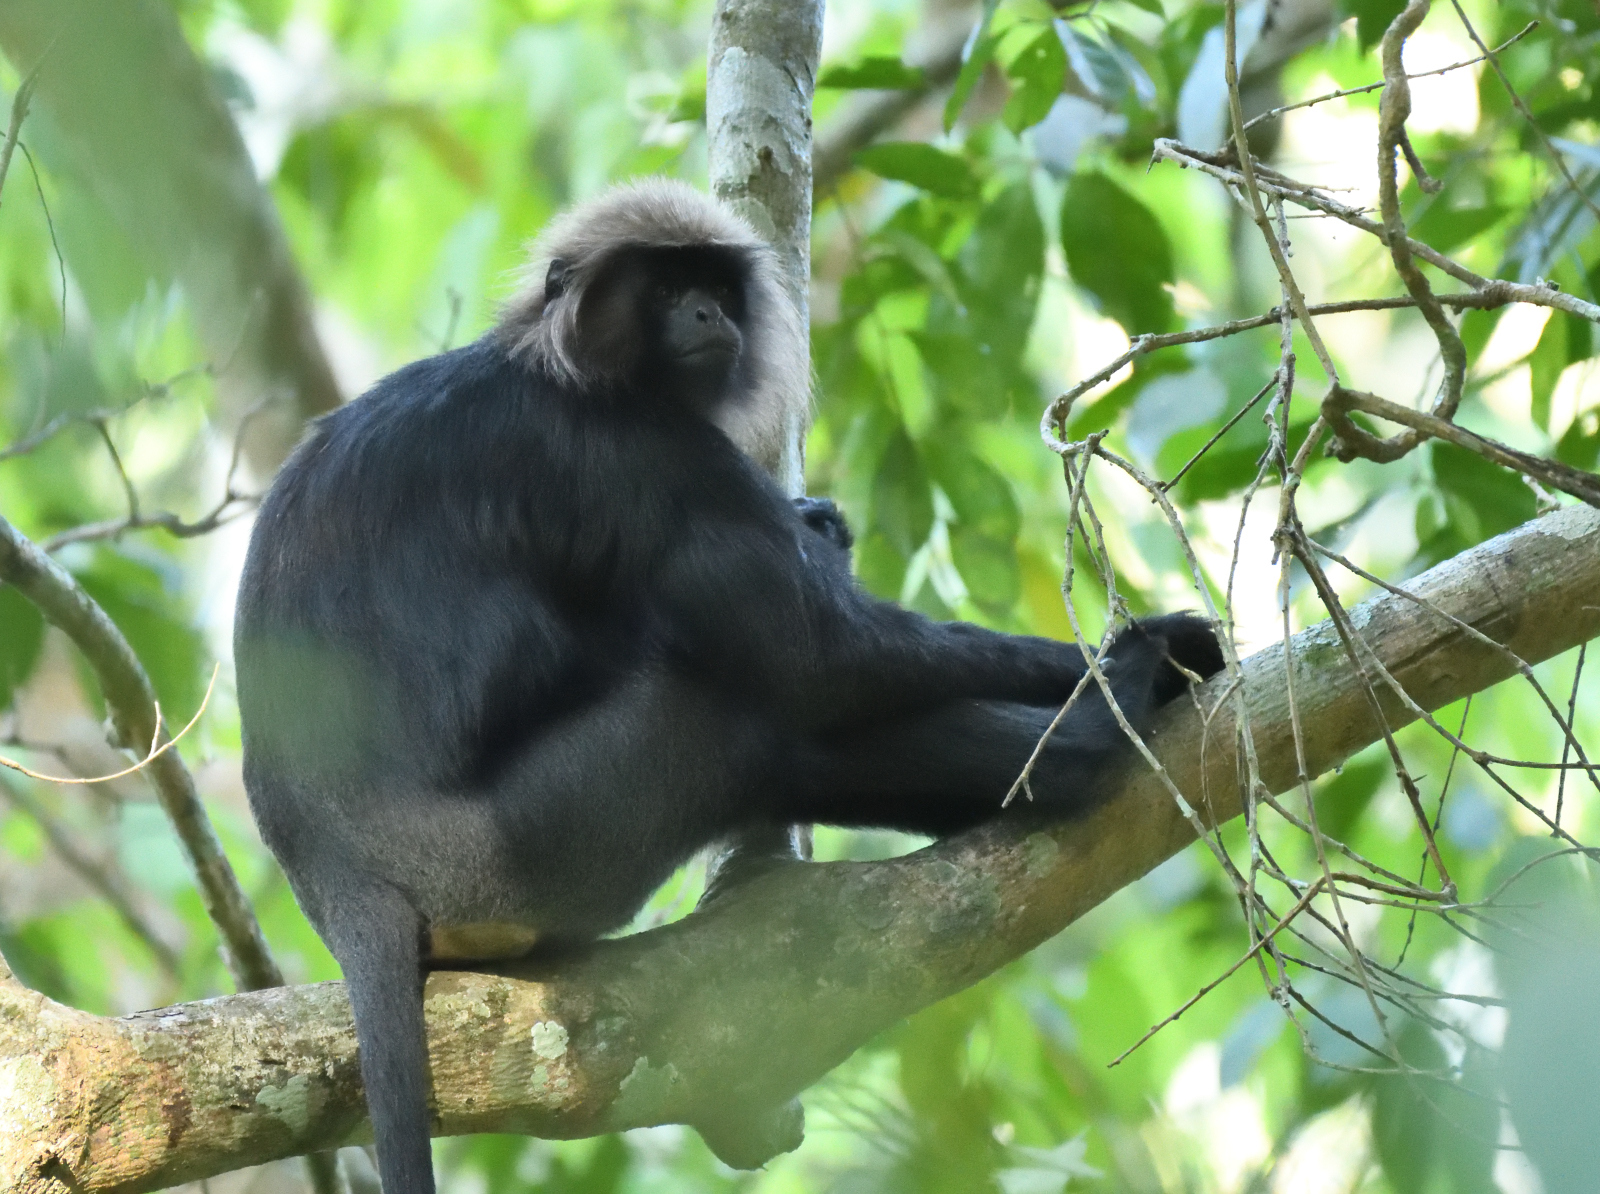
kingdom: Animalia
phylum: Chordata
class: Mammalia
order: Primates
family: Cercopithecidae
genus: Semnopithecus
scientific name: Semnopithecus johnii
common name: Nilgiri langur
